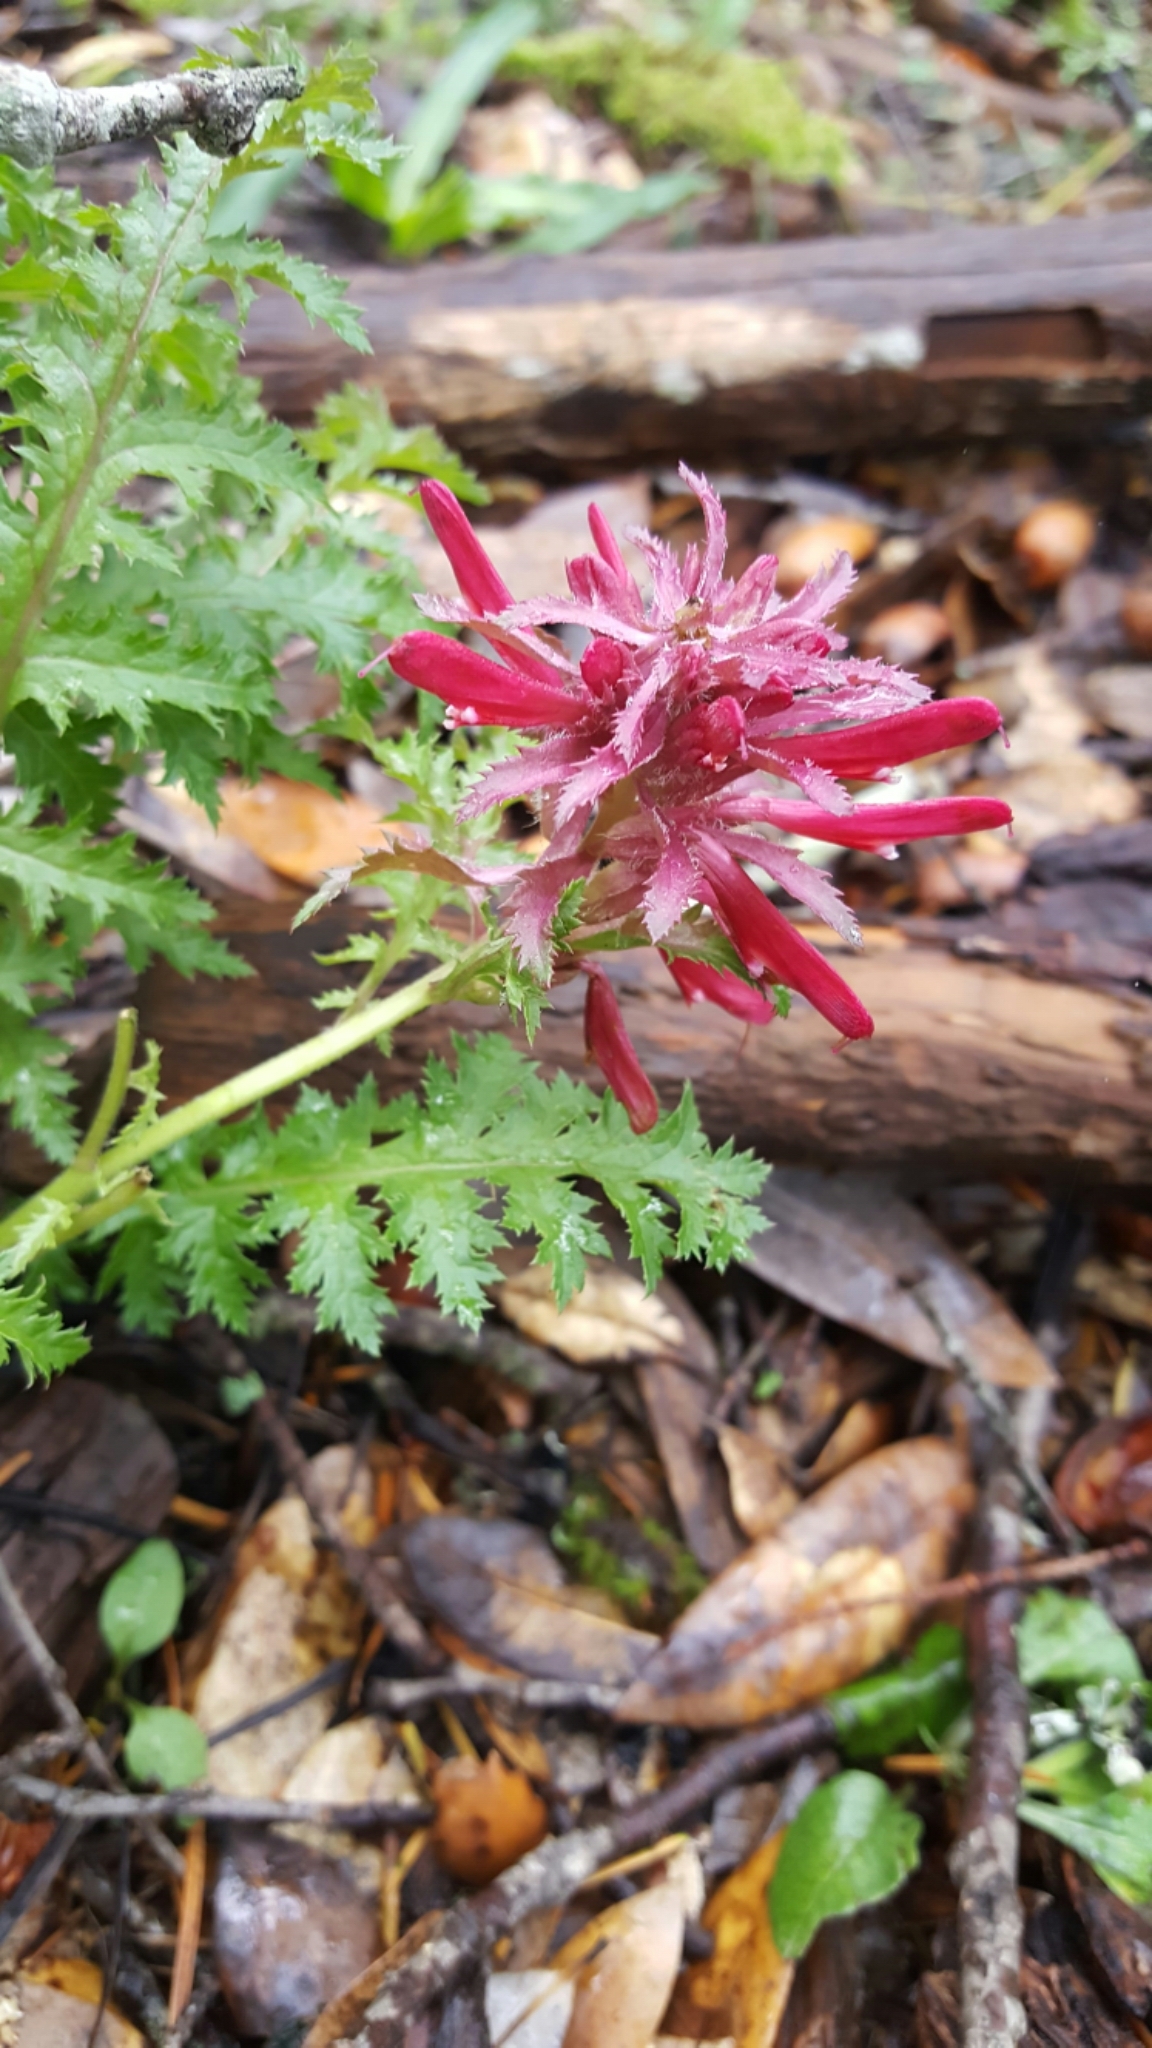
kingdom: Plantae
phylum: Tracheophyta
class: Magnoliopsida
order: Lamiales
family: Orobanchaceae
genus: Pedicularis
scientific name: Pedicularis densiflora
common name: Indian warrior
